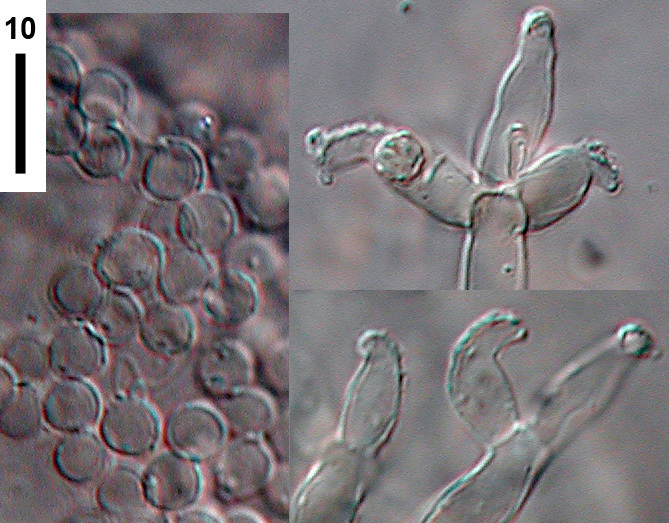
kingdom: Fungi
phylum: Ascomycota
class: Pezizomycetes
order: Pezizales
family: Morchellaceae
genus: Costantinella
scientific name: Costantinella micheneri
